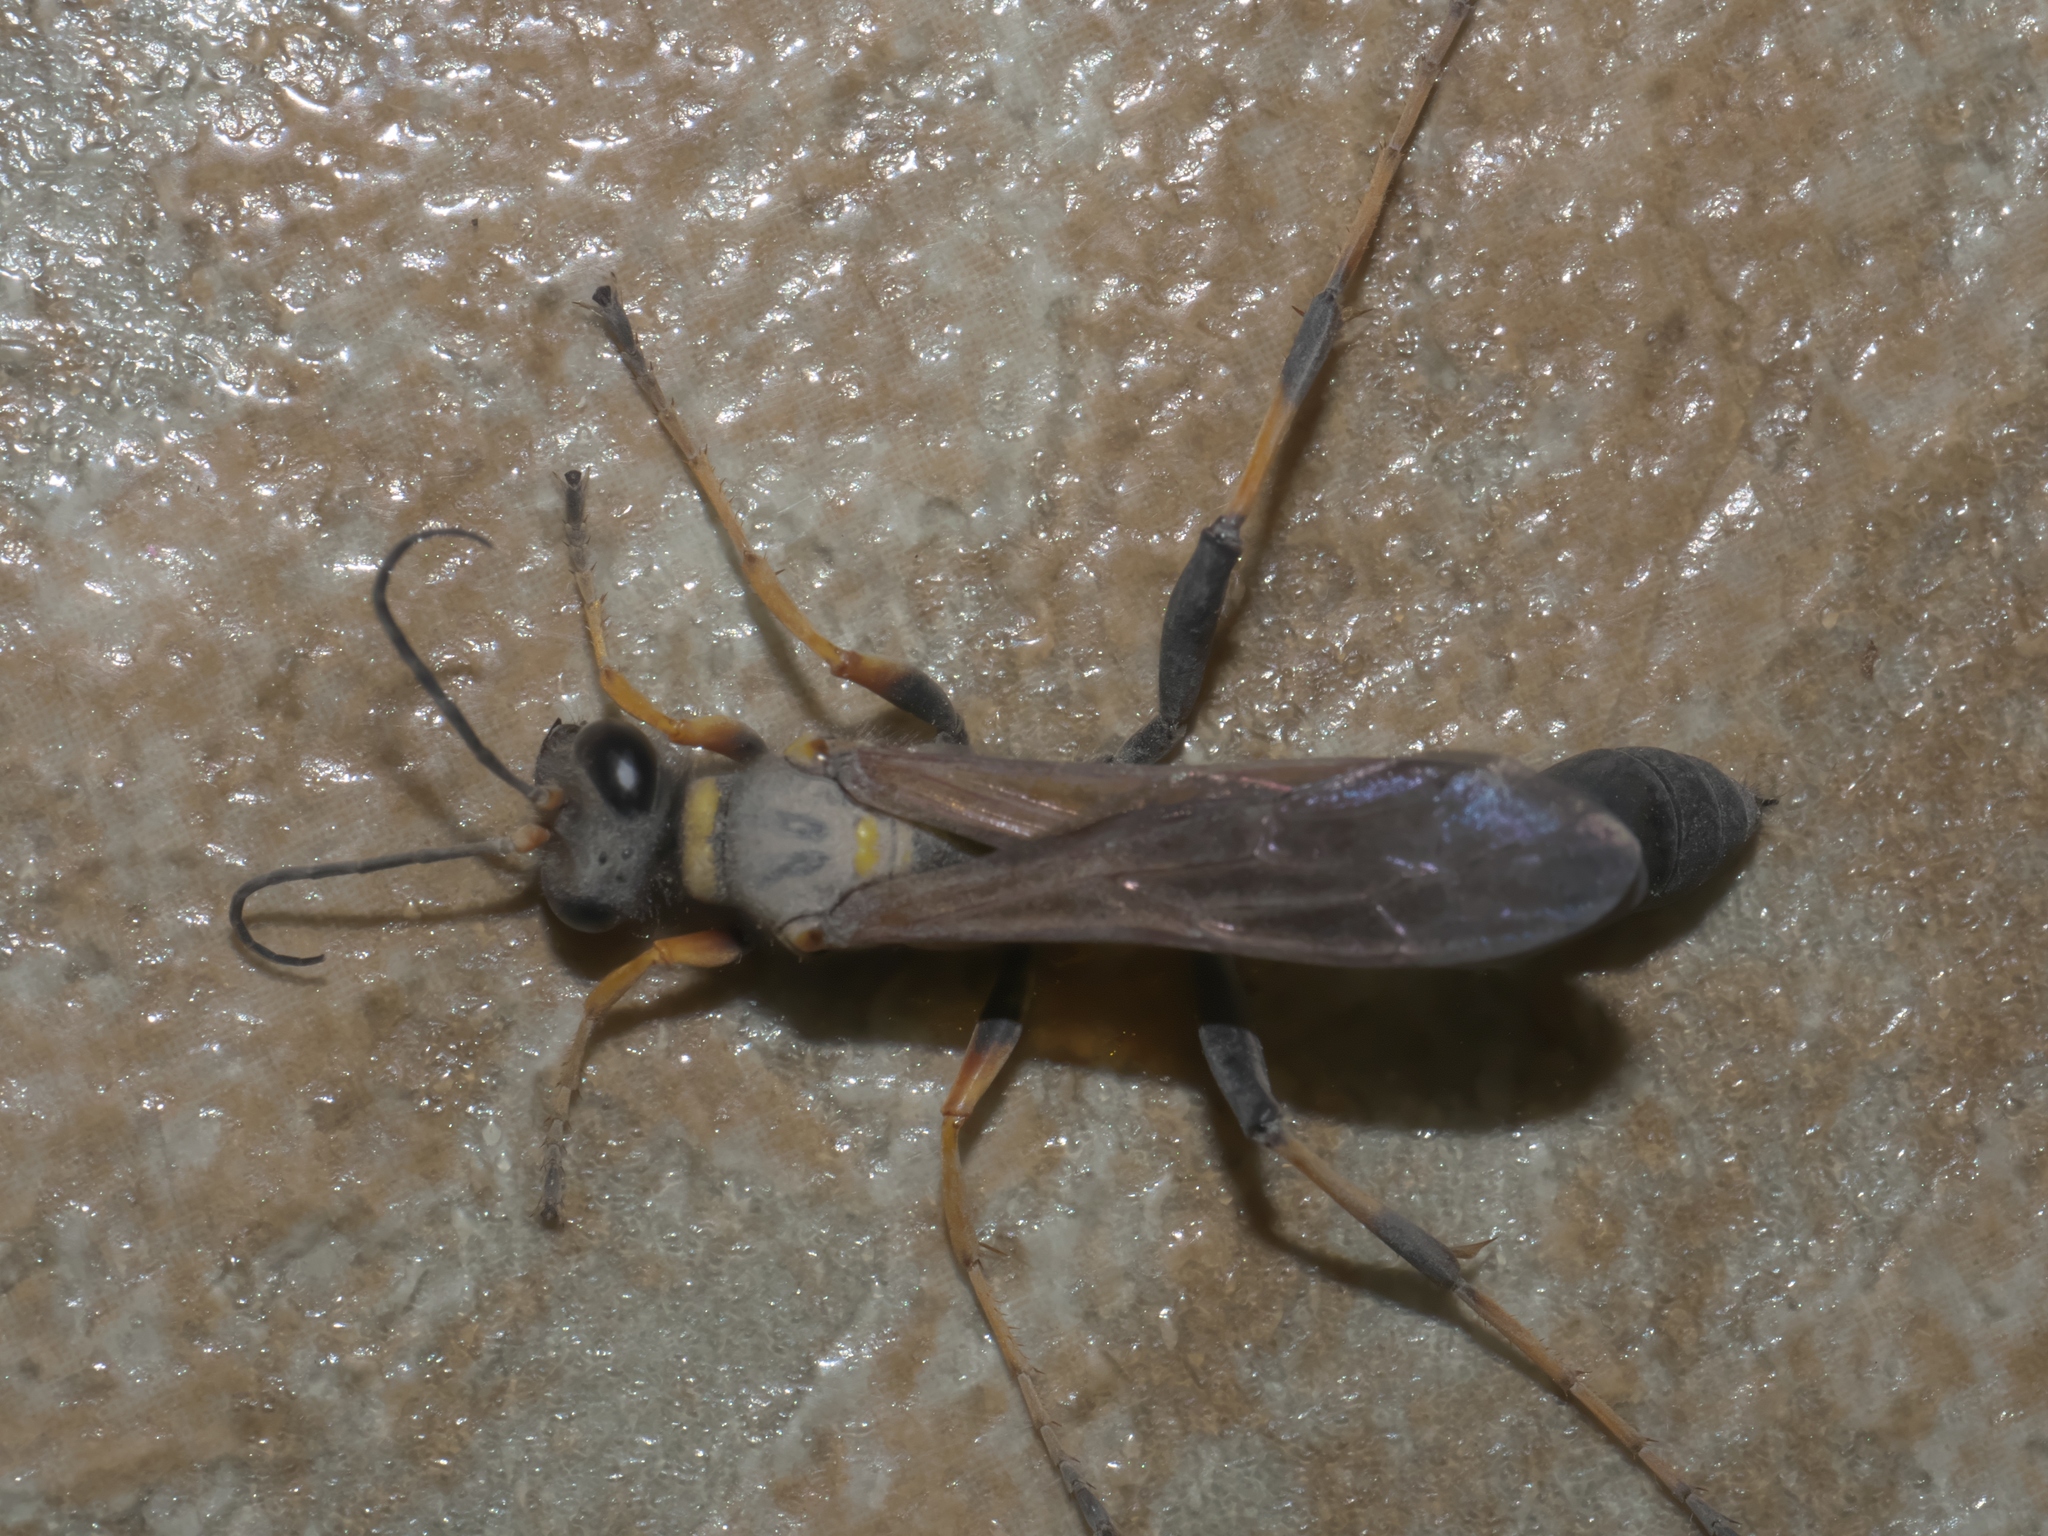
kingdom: Animalia
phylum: Arthropoda
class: Insecta
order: Hymenoptera
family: Sphecidae
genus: Sceliphron
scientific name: Sceliphron caementarium
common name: Mud dauber
